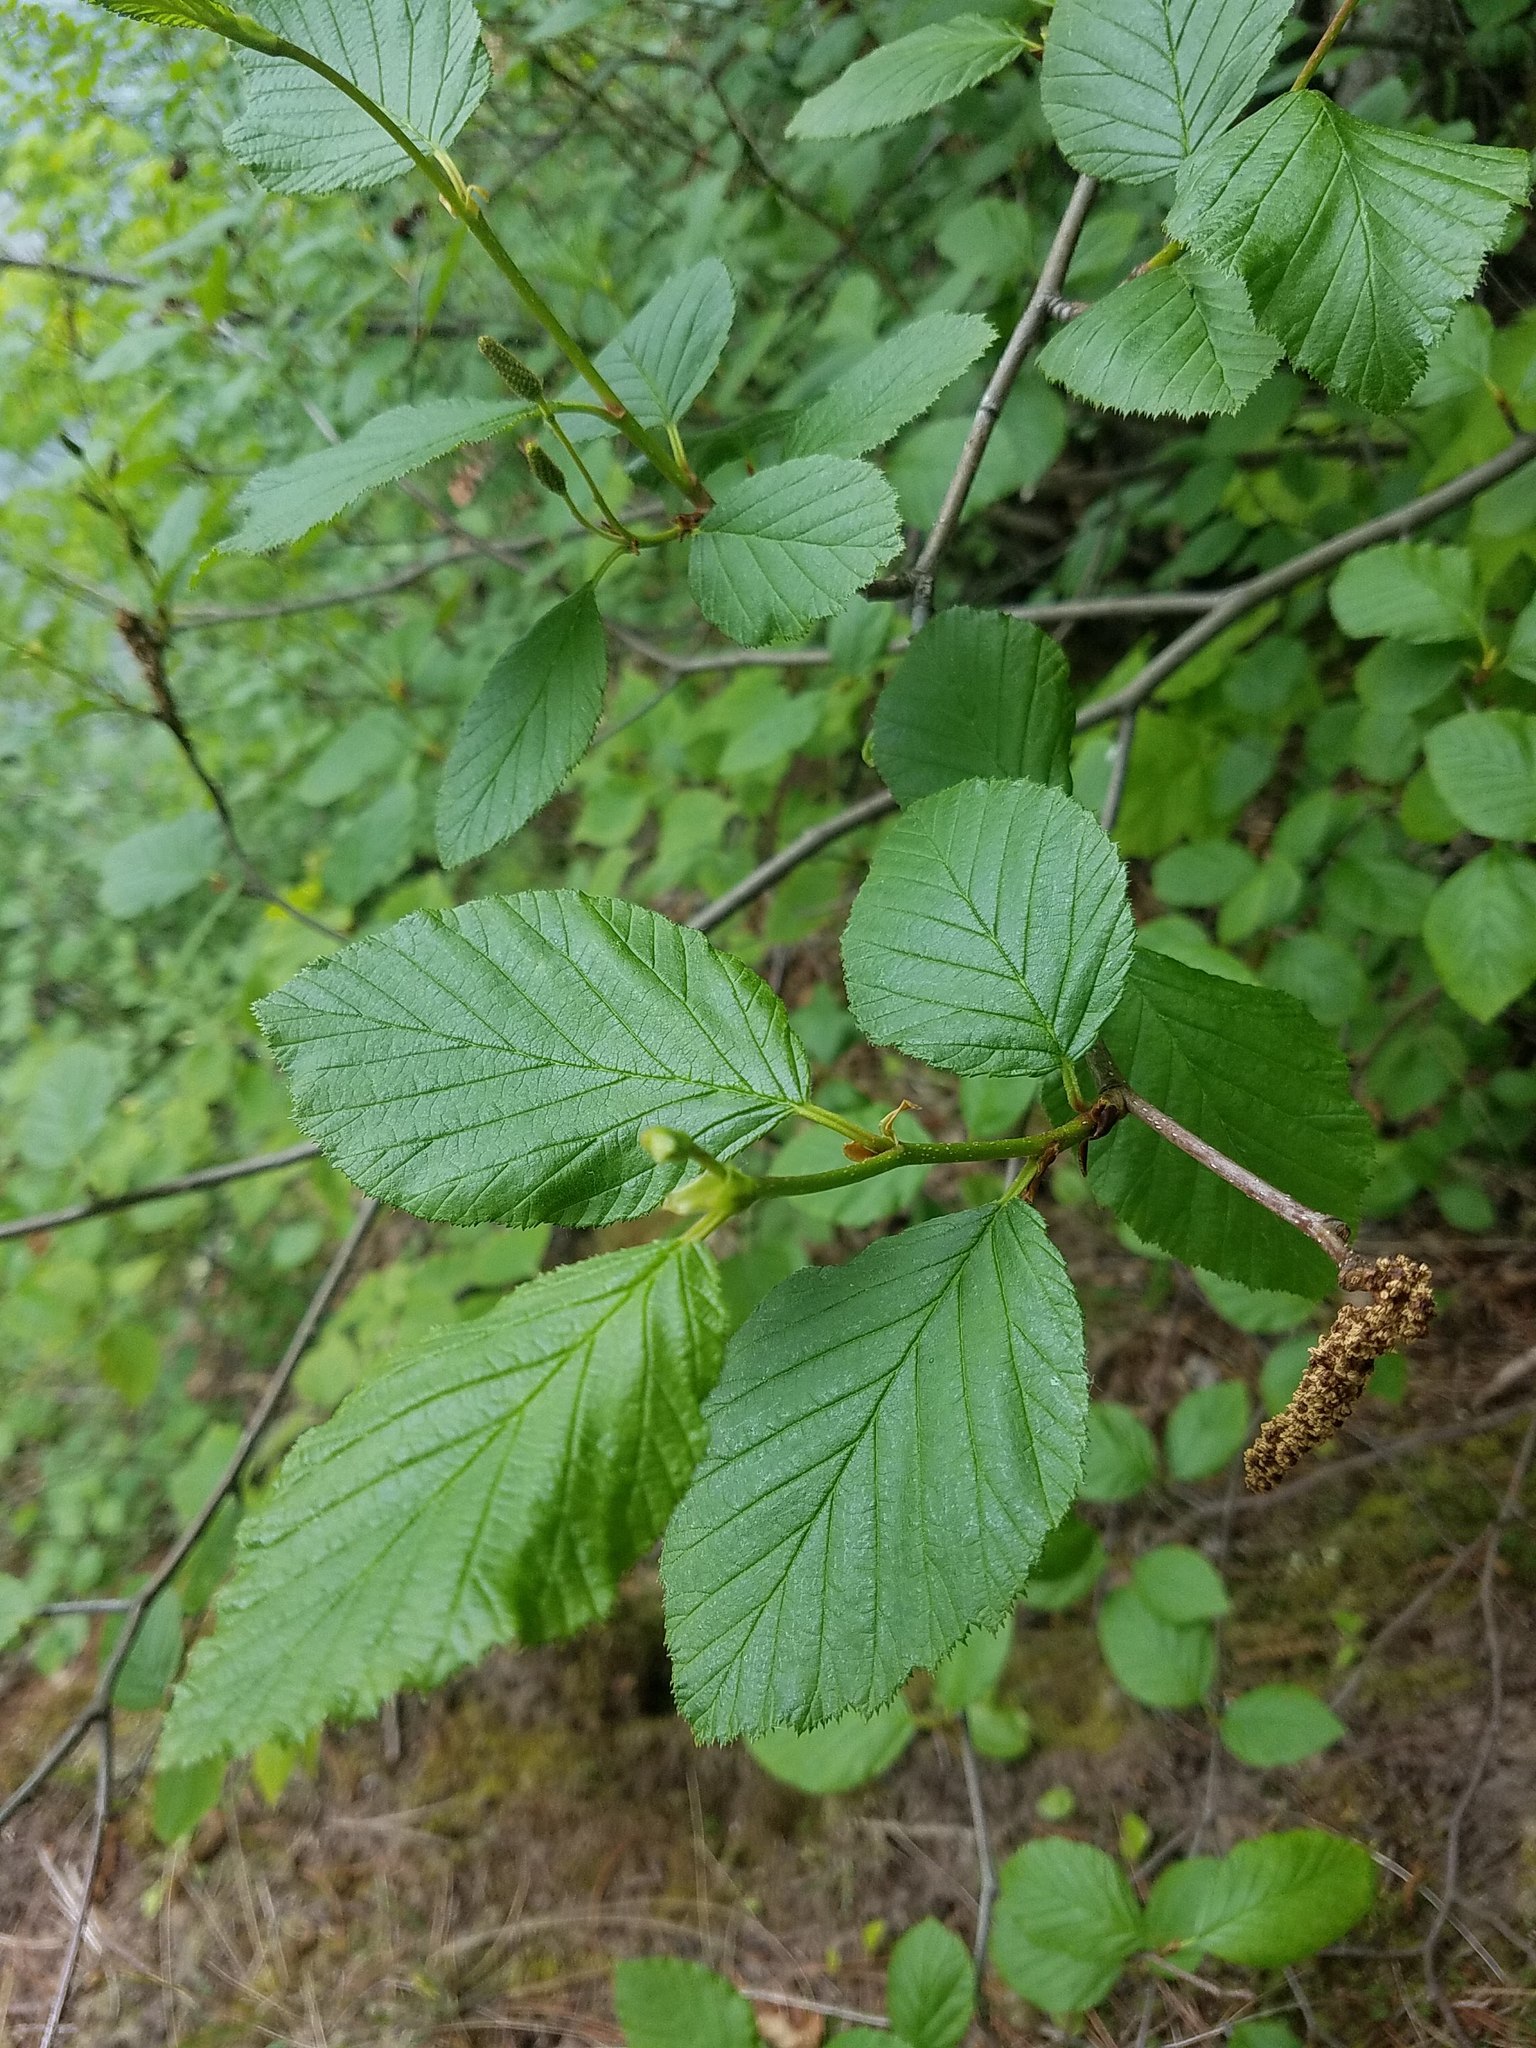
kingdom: Plantae
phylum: Tracheophyta
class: Magnoliopsida
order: Fagales
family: Betulaceae
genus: Alnus
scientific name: Alnus alnobetula
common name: Green alder
